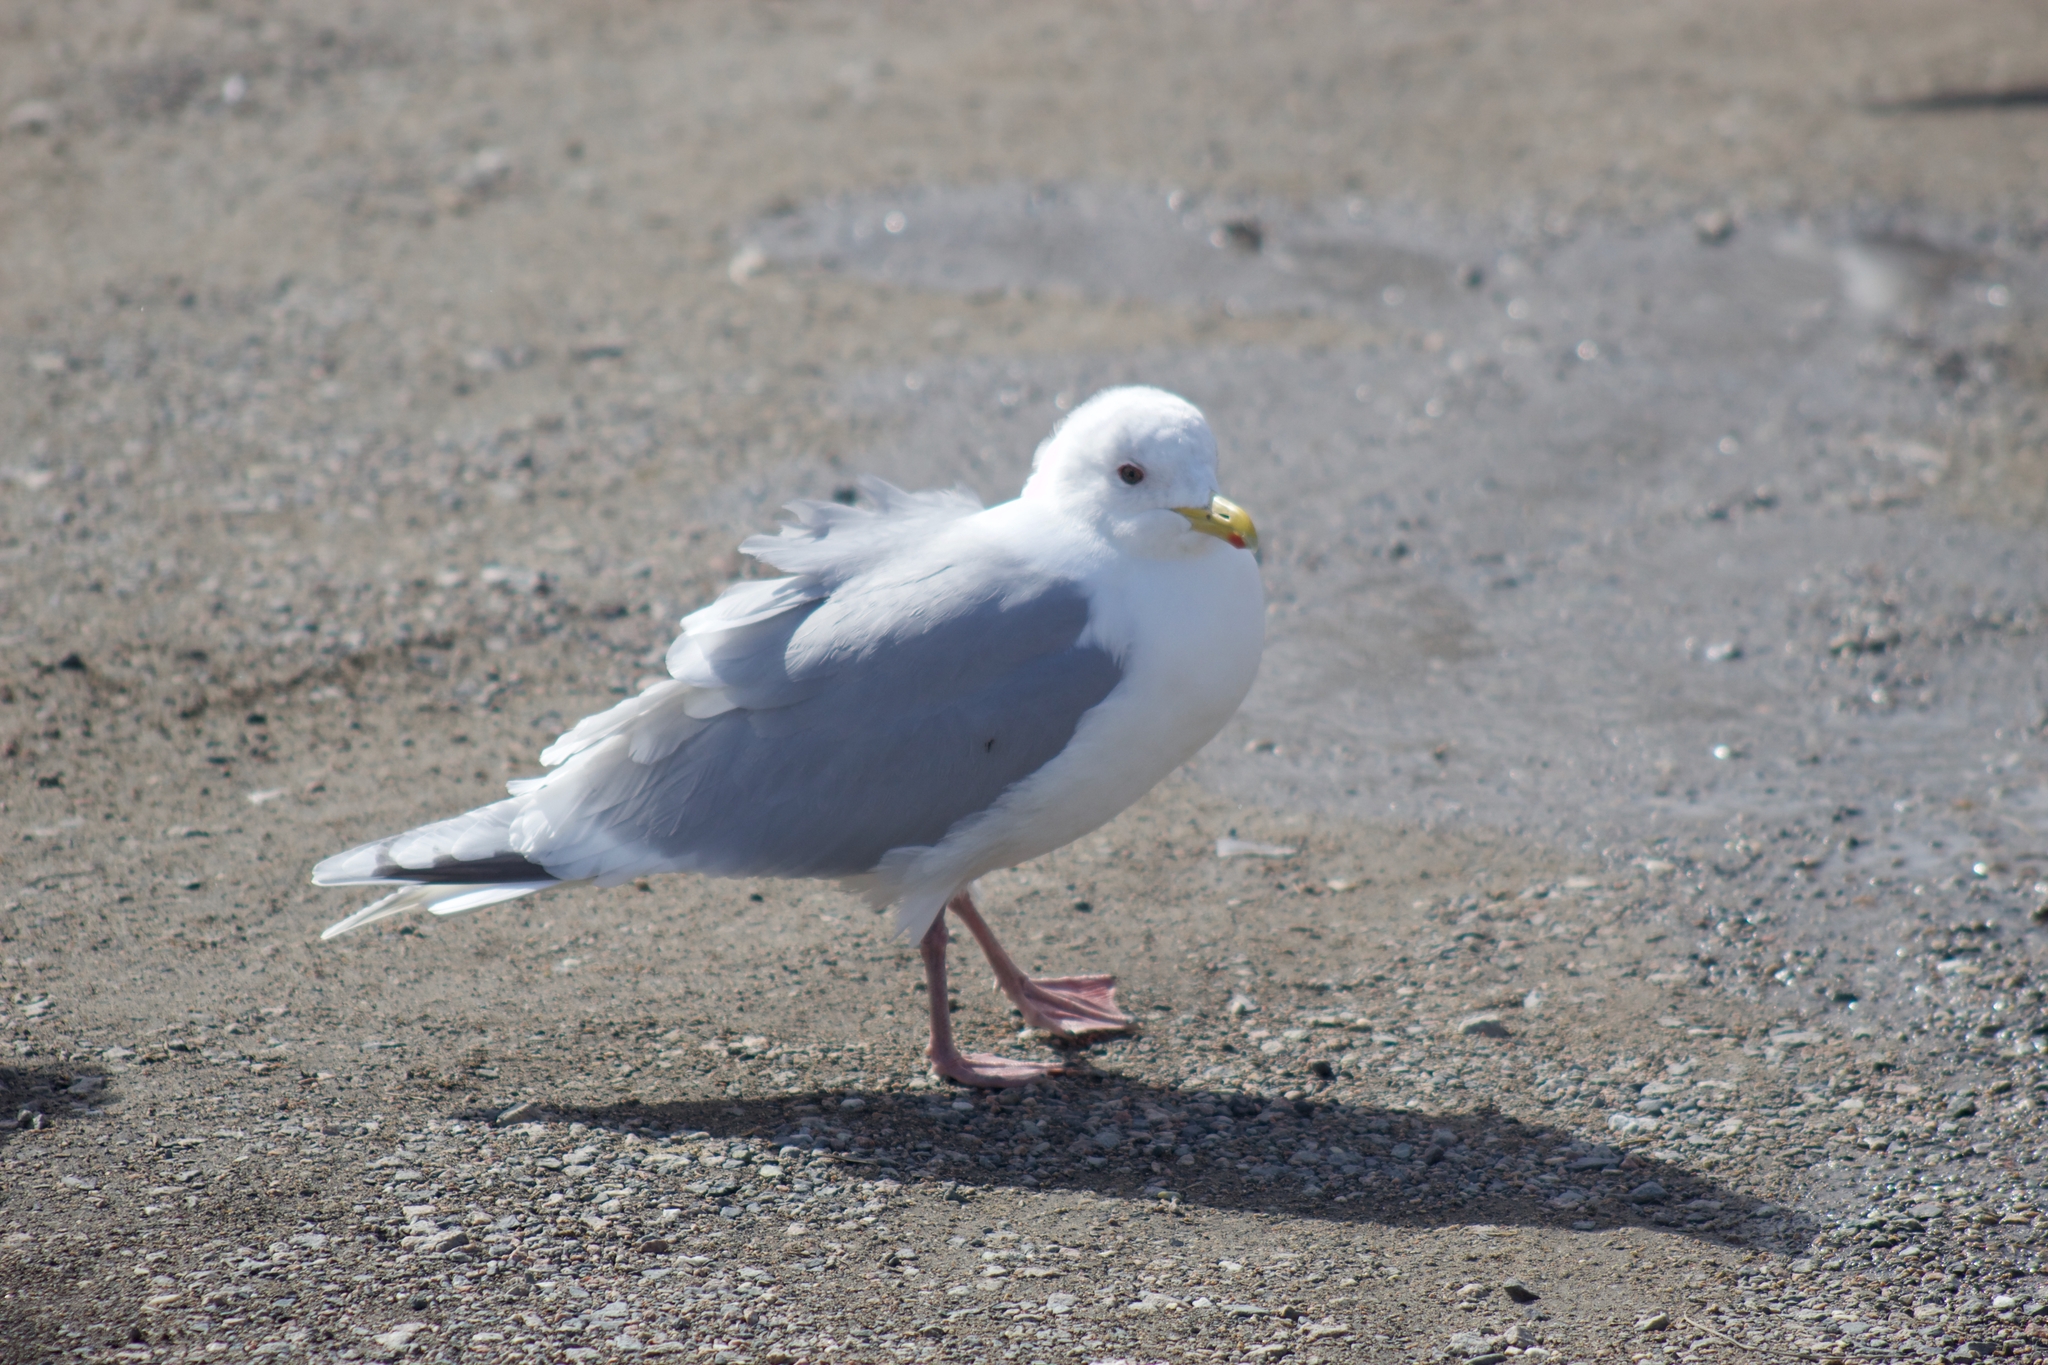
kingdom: Animalia
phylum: Chordata
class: Aves
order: Charadriiformes
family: Laridae
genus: Larus
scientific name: Larus glaucoides
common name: Iceland gull
